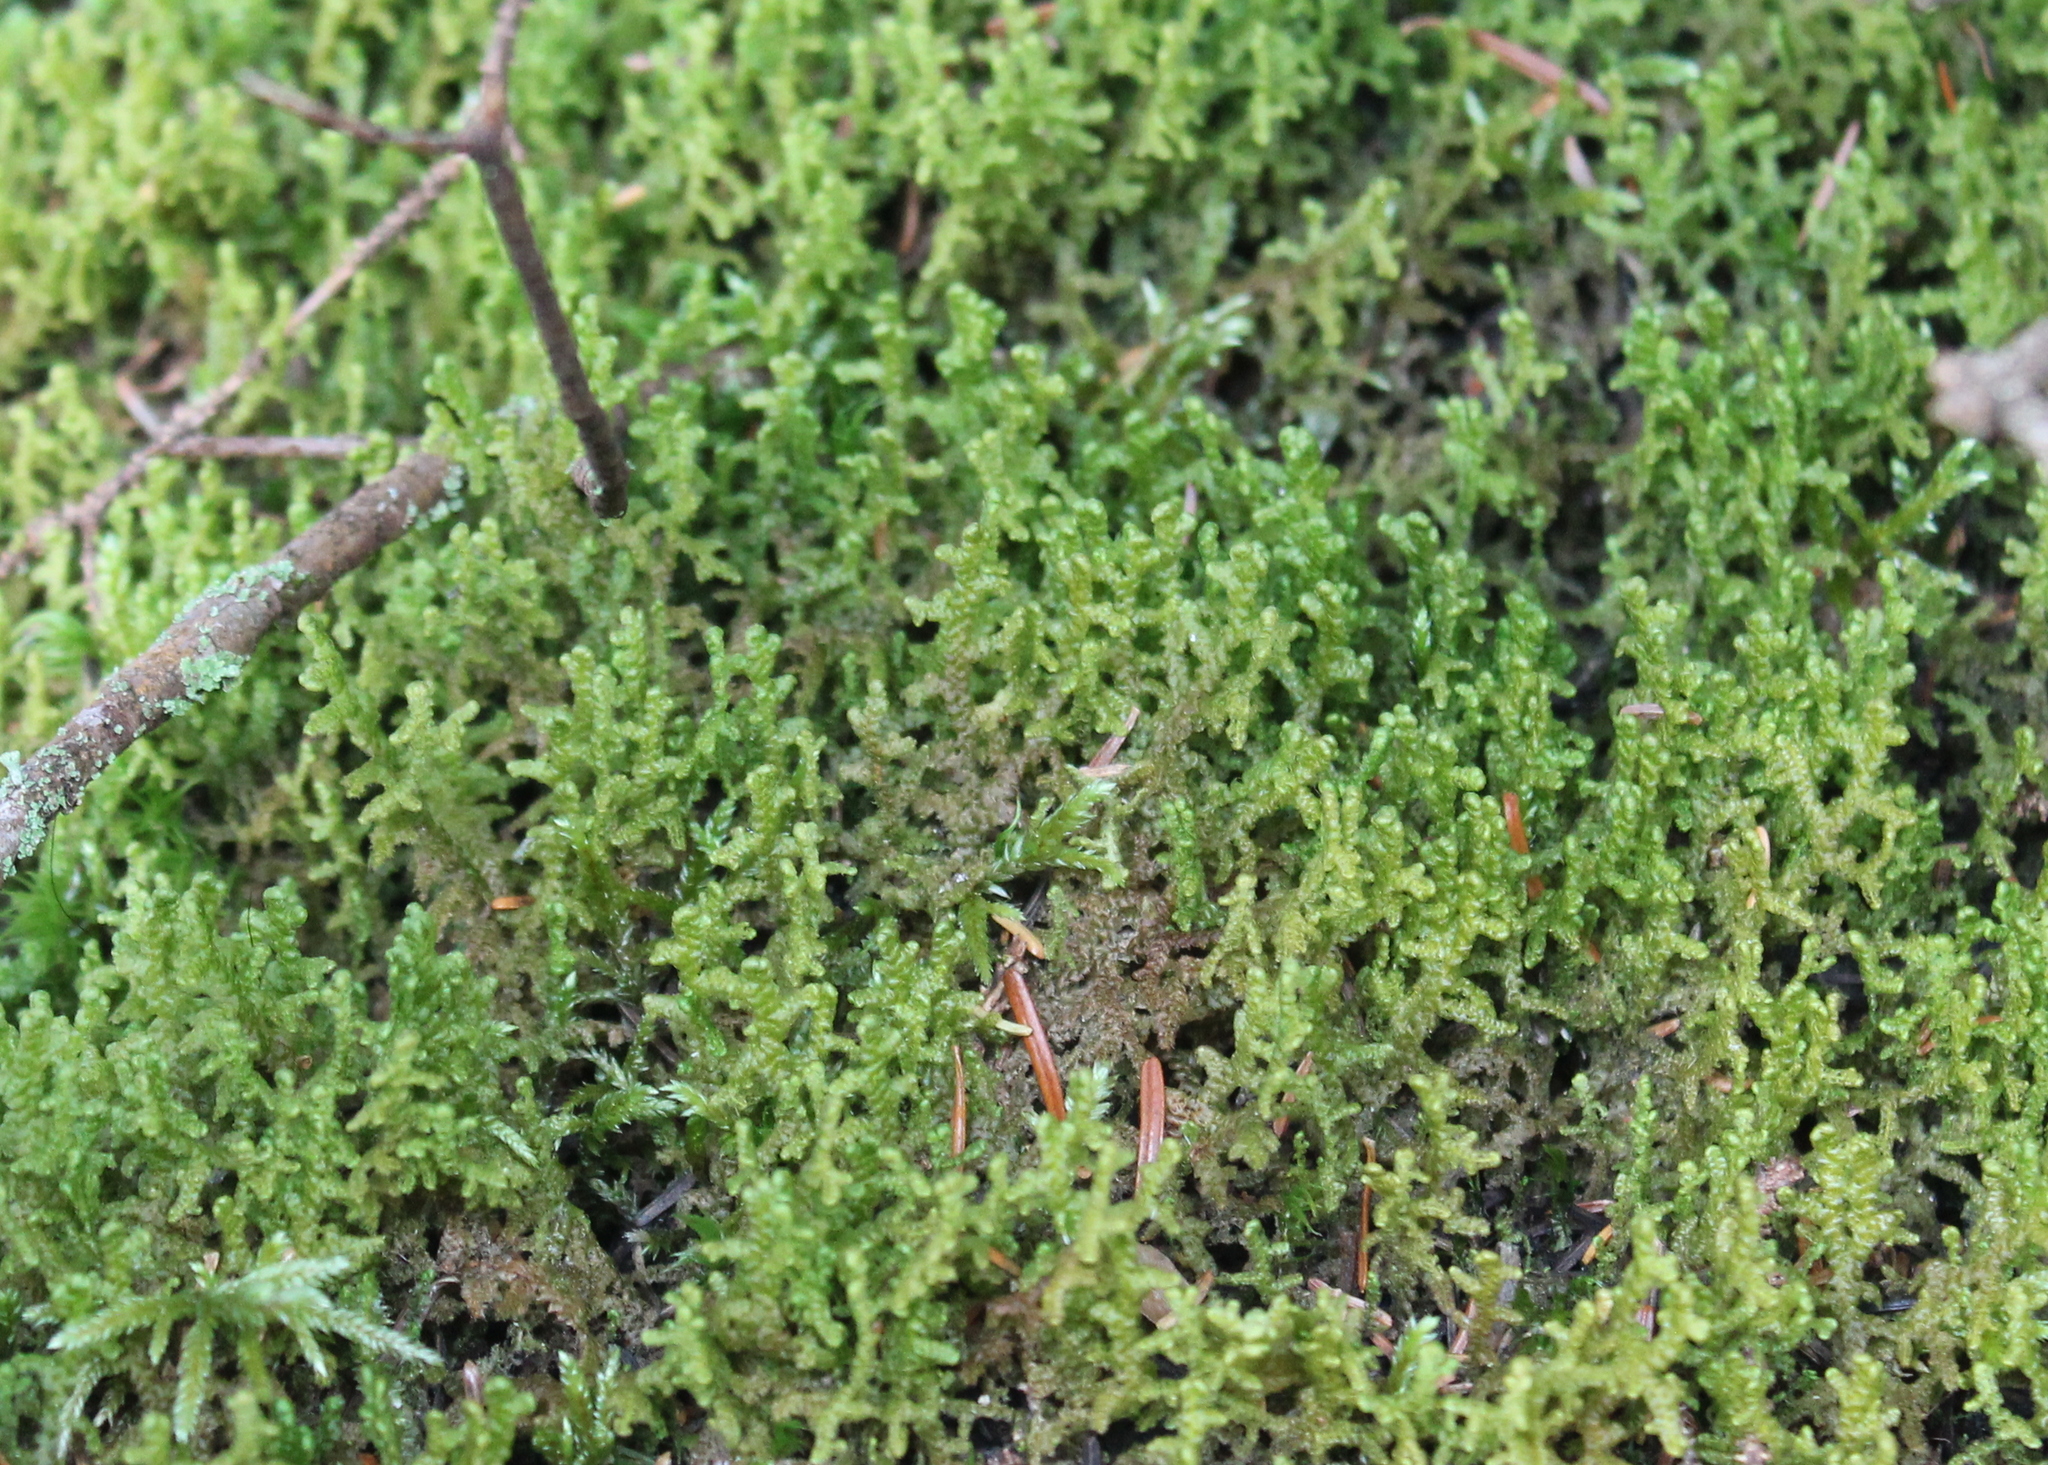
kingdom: Plantae
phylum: Marchantiophyta
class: Jungermanniopsida
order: Ptilidiales
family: Ptilidiaceae
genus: Ptilidium
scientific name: Ptilidium ciliare
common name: Ciliate fringewort
